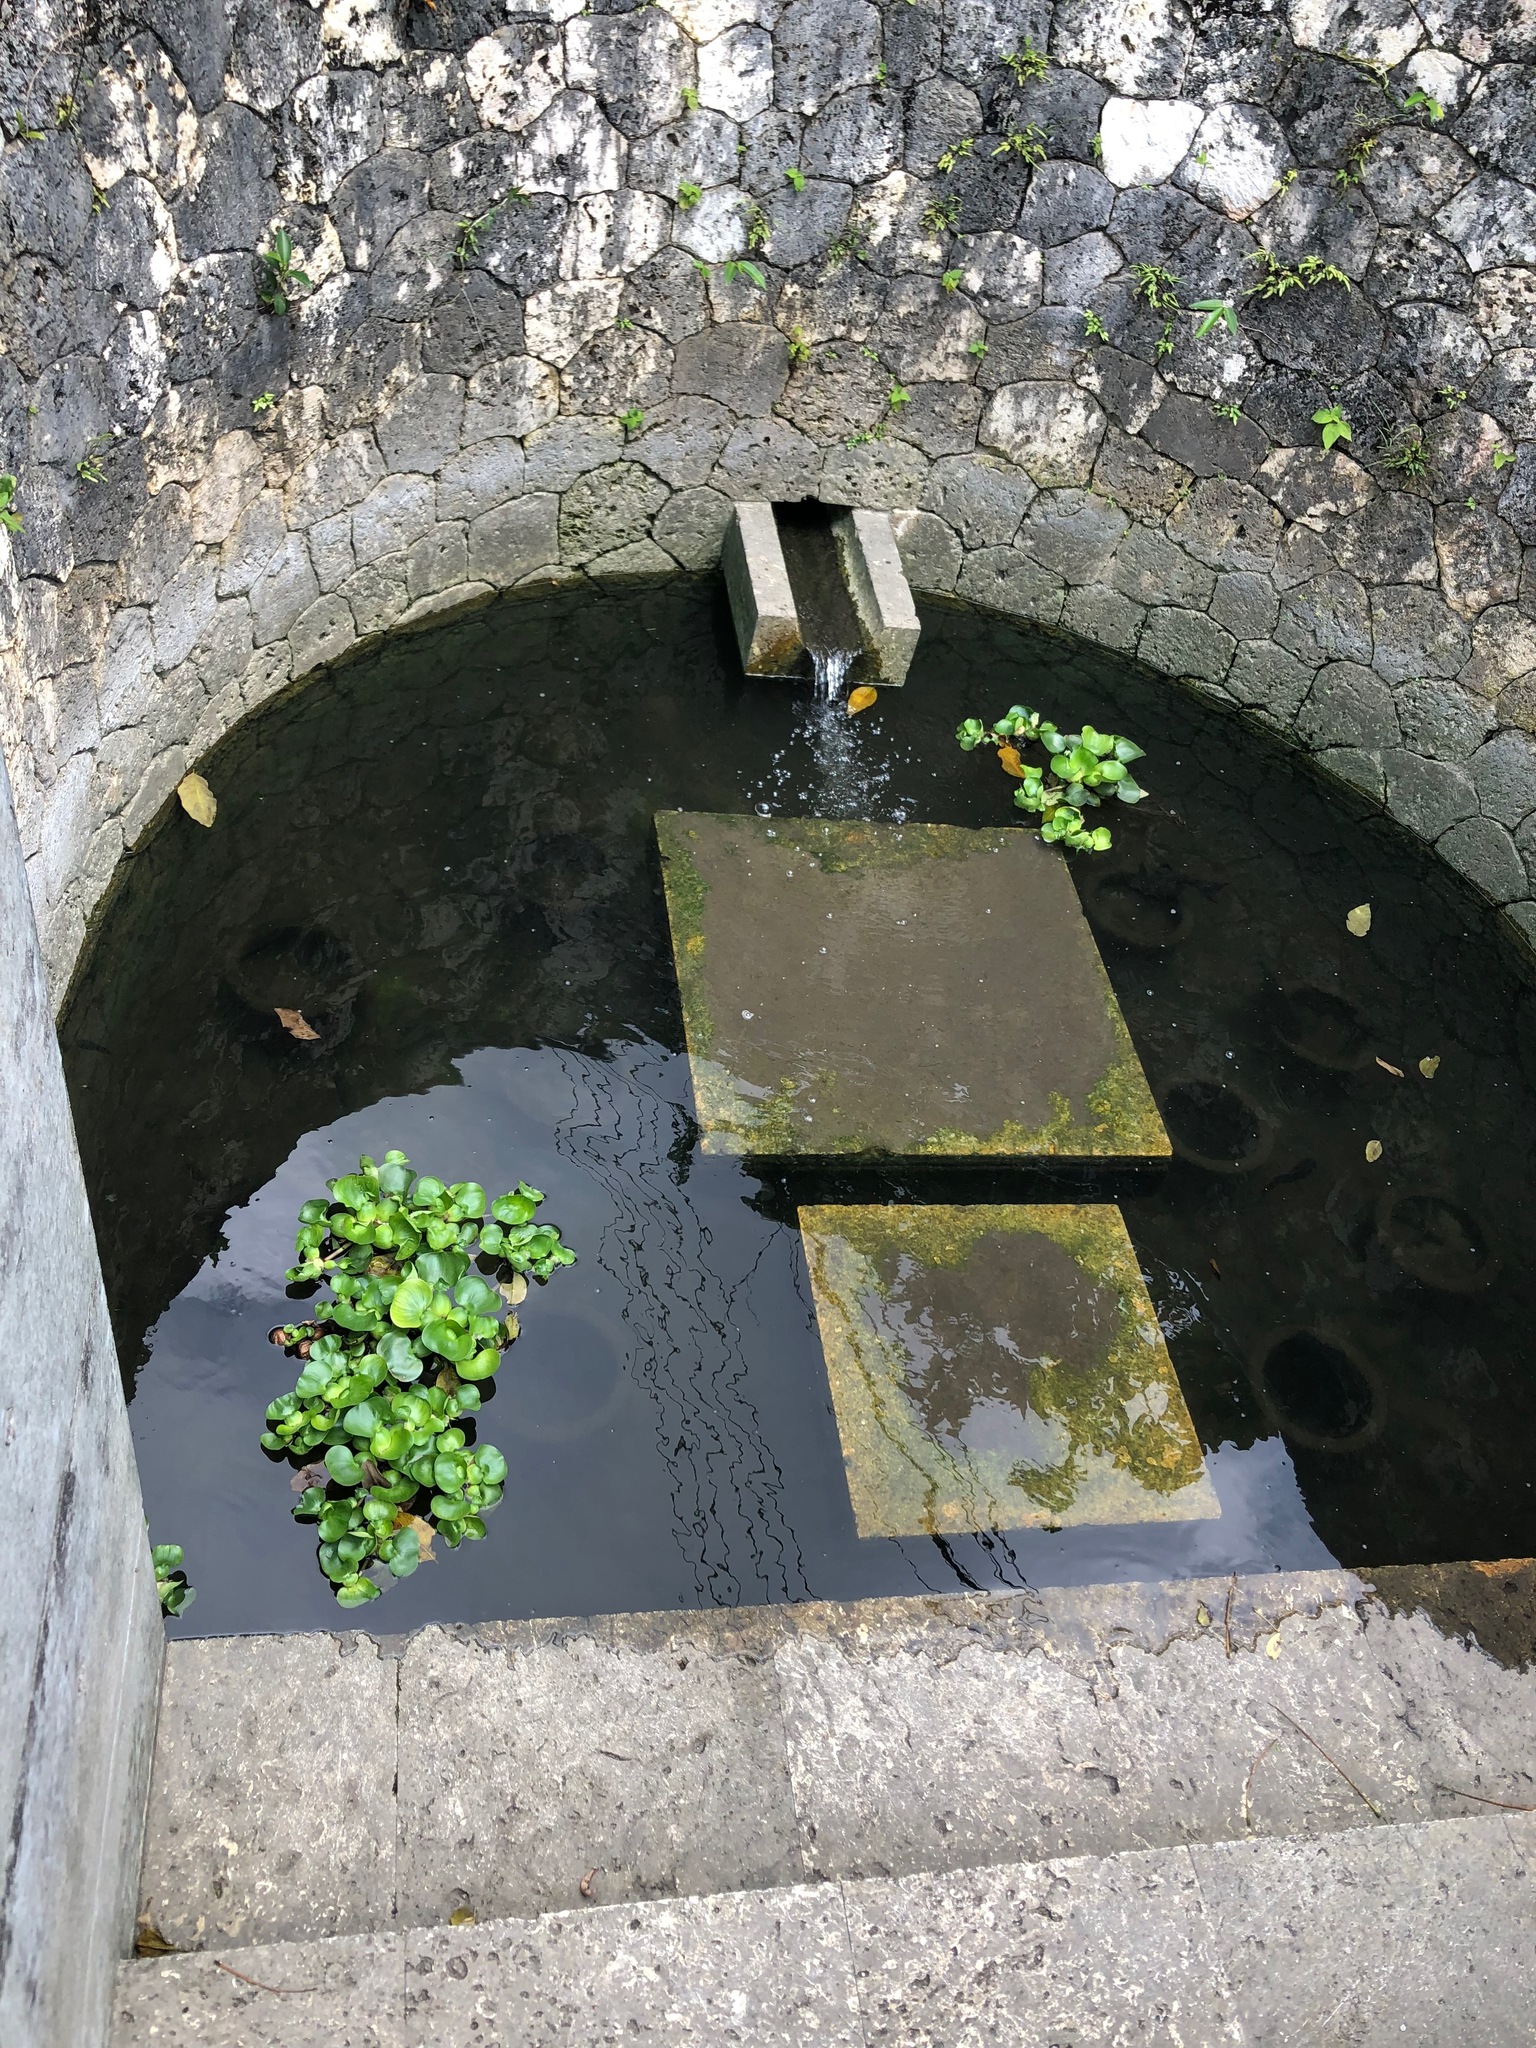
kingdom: Plantae
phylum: Tracheophyta
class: Liliopsida
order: Commelinales
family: Pontederiaceae
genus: Pontederia
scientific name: Pontederia crassipes
